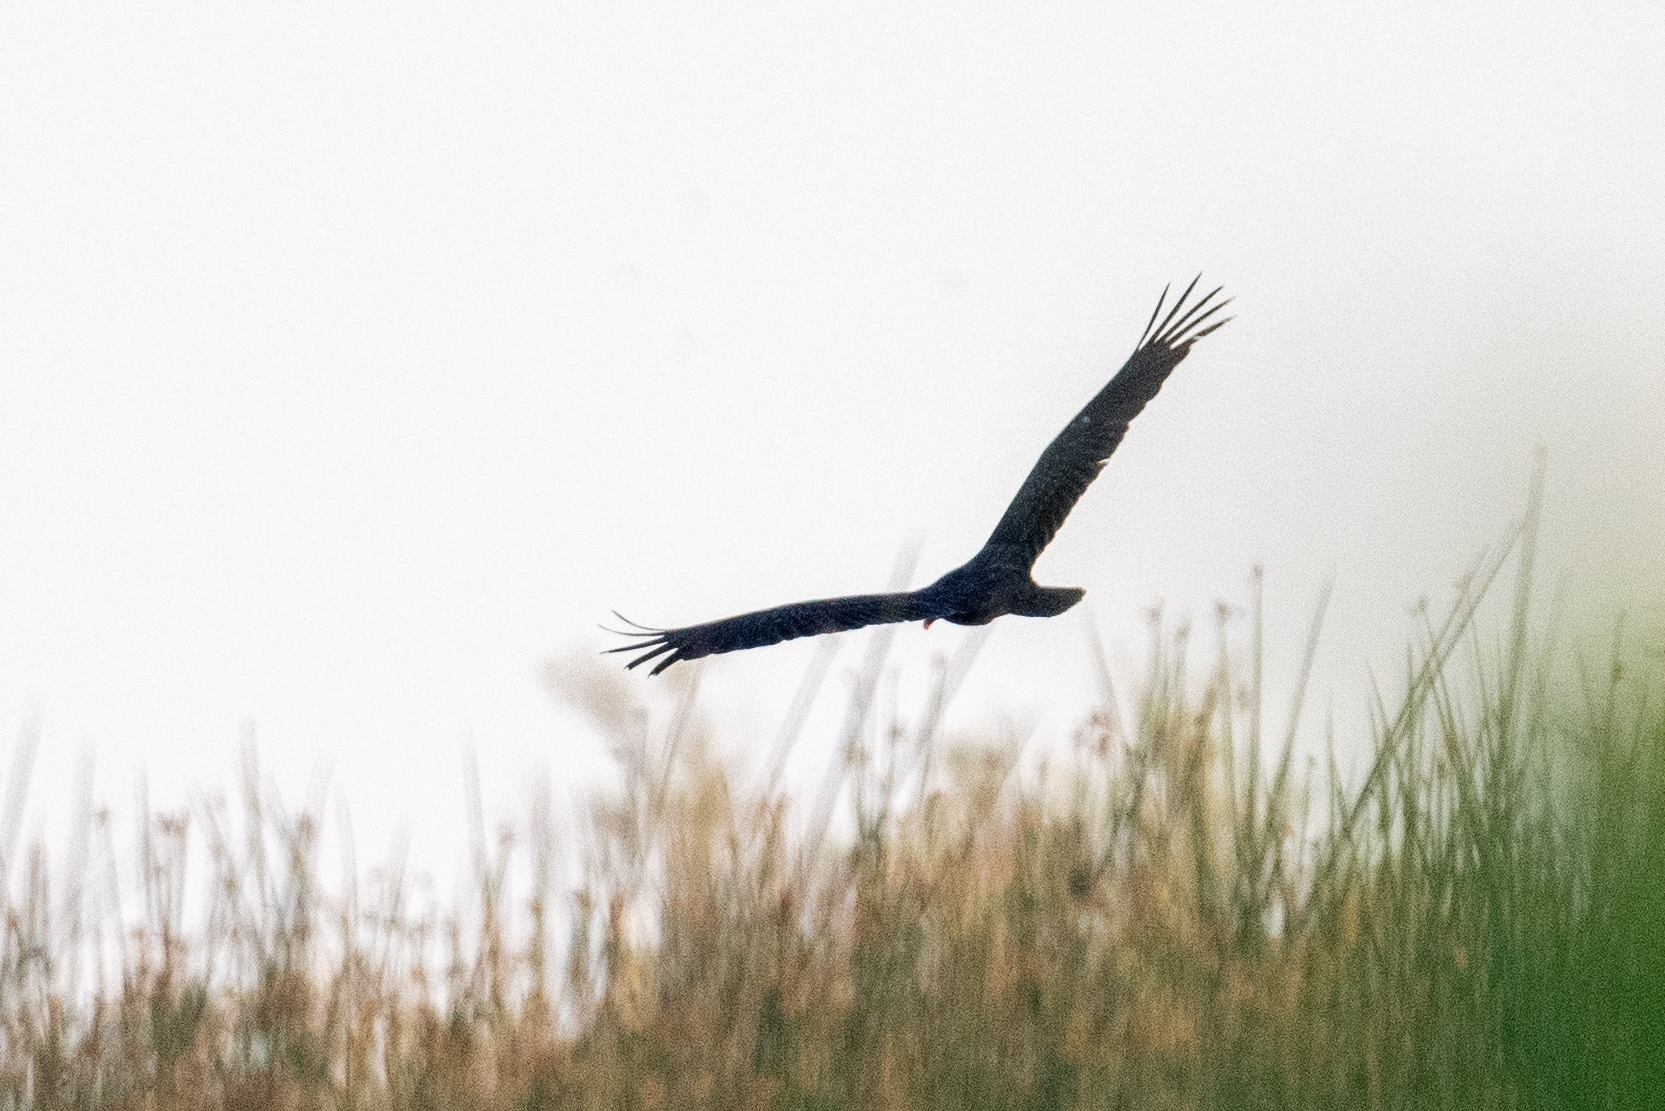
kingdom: Animalia
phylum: Chordata
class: Aves
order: Accipitriformes
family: Cathartidae
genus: Cathartes
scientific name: Cathartes aura
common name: Turkey vulture
